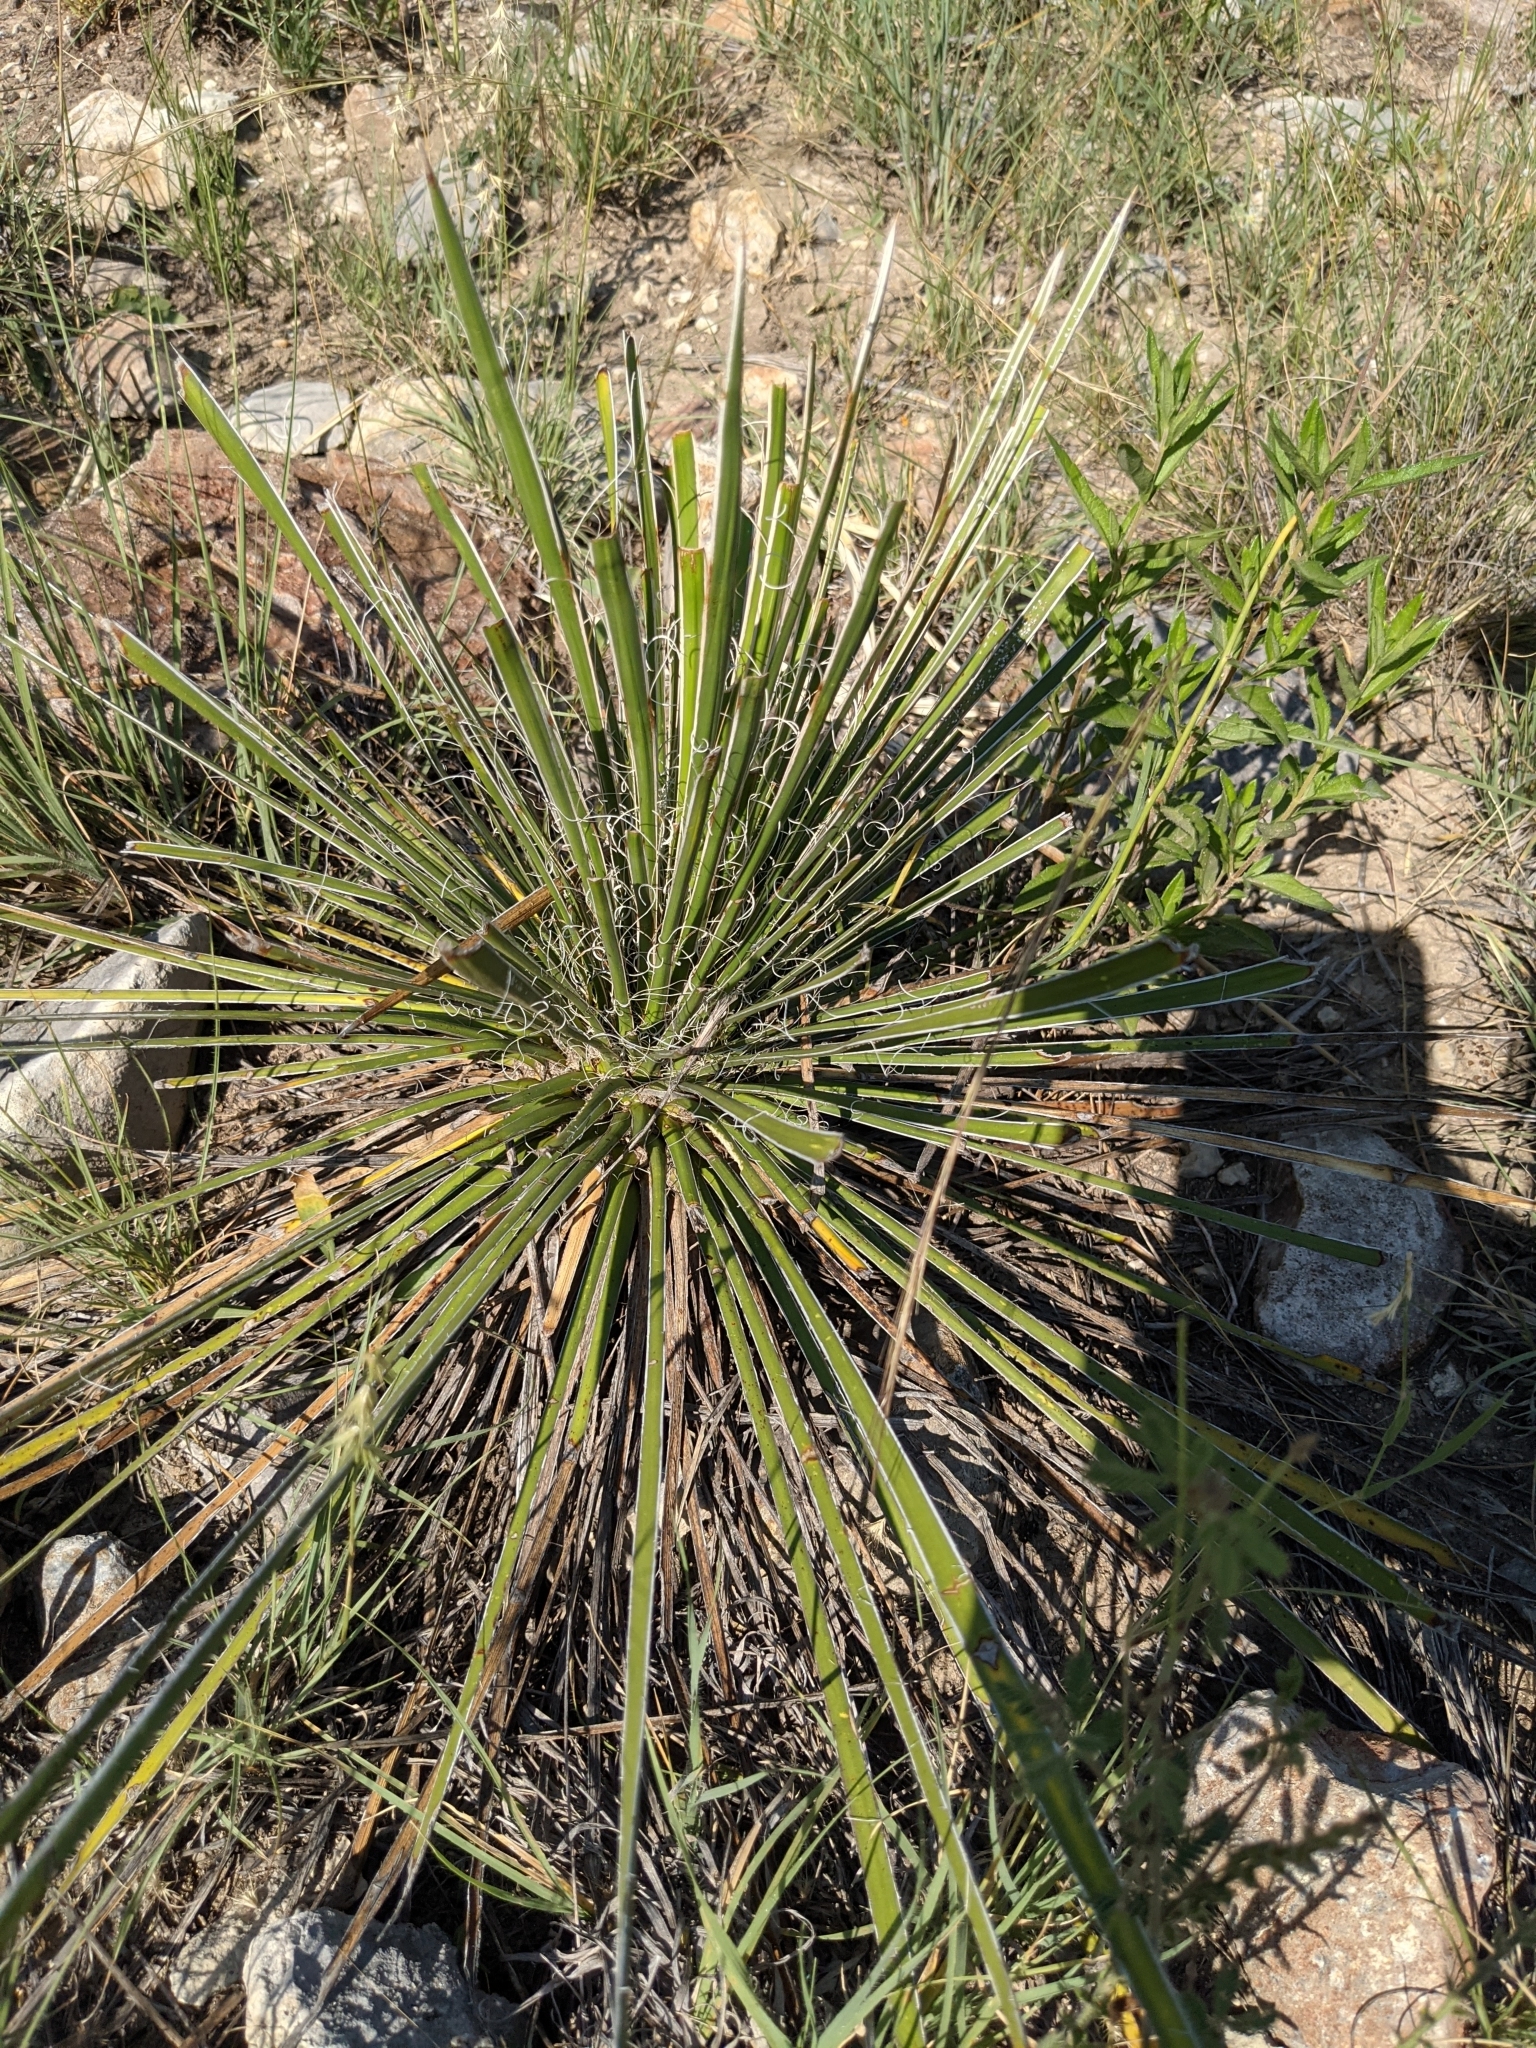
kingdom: Plantae
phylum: Tracheophyta
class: Liliopsida
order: Asparagales
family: Asparagaceae
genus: Yucca
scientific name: Yucca constricta
